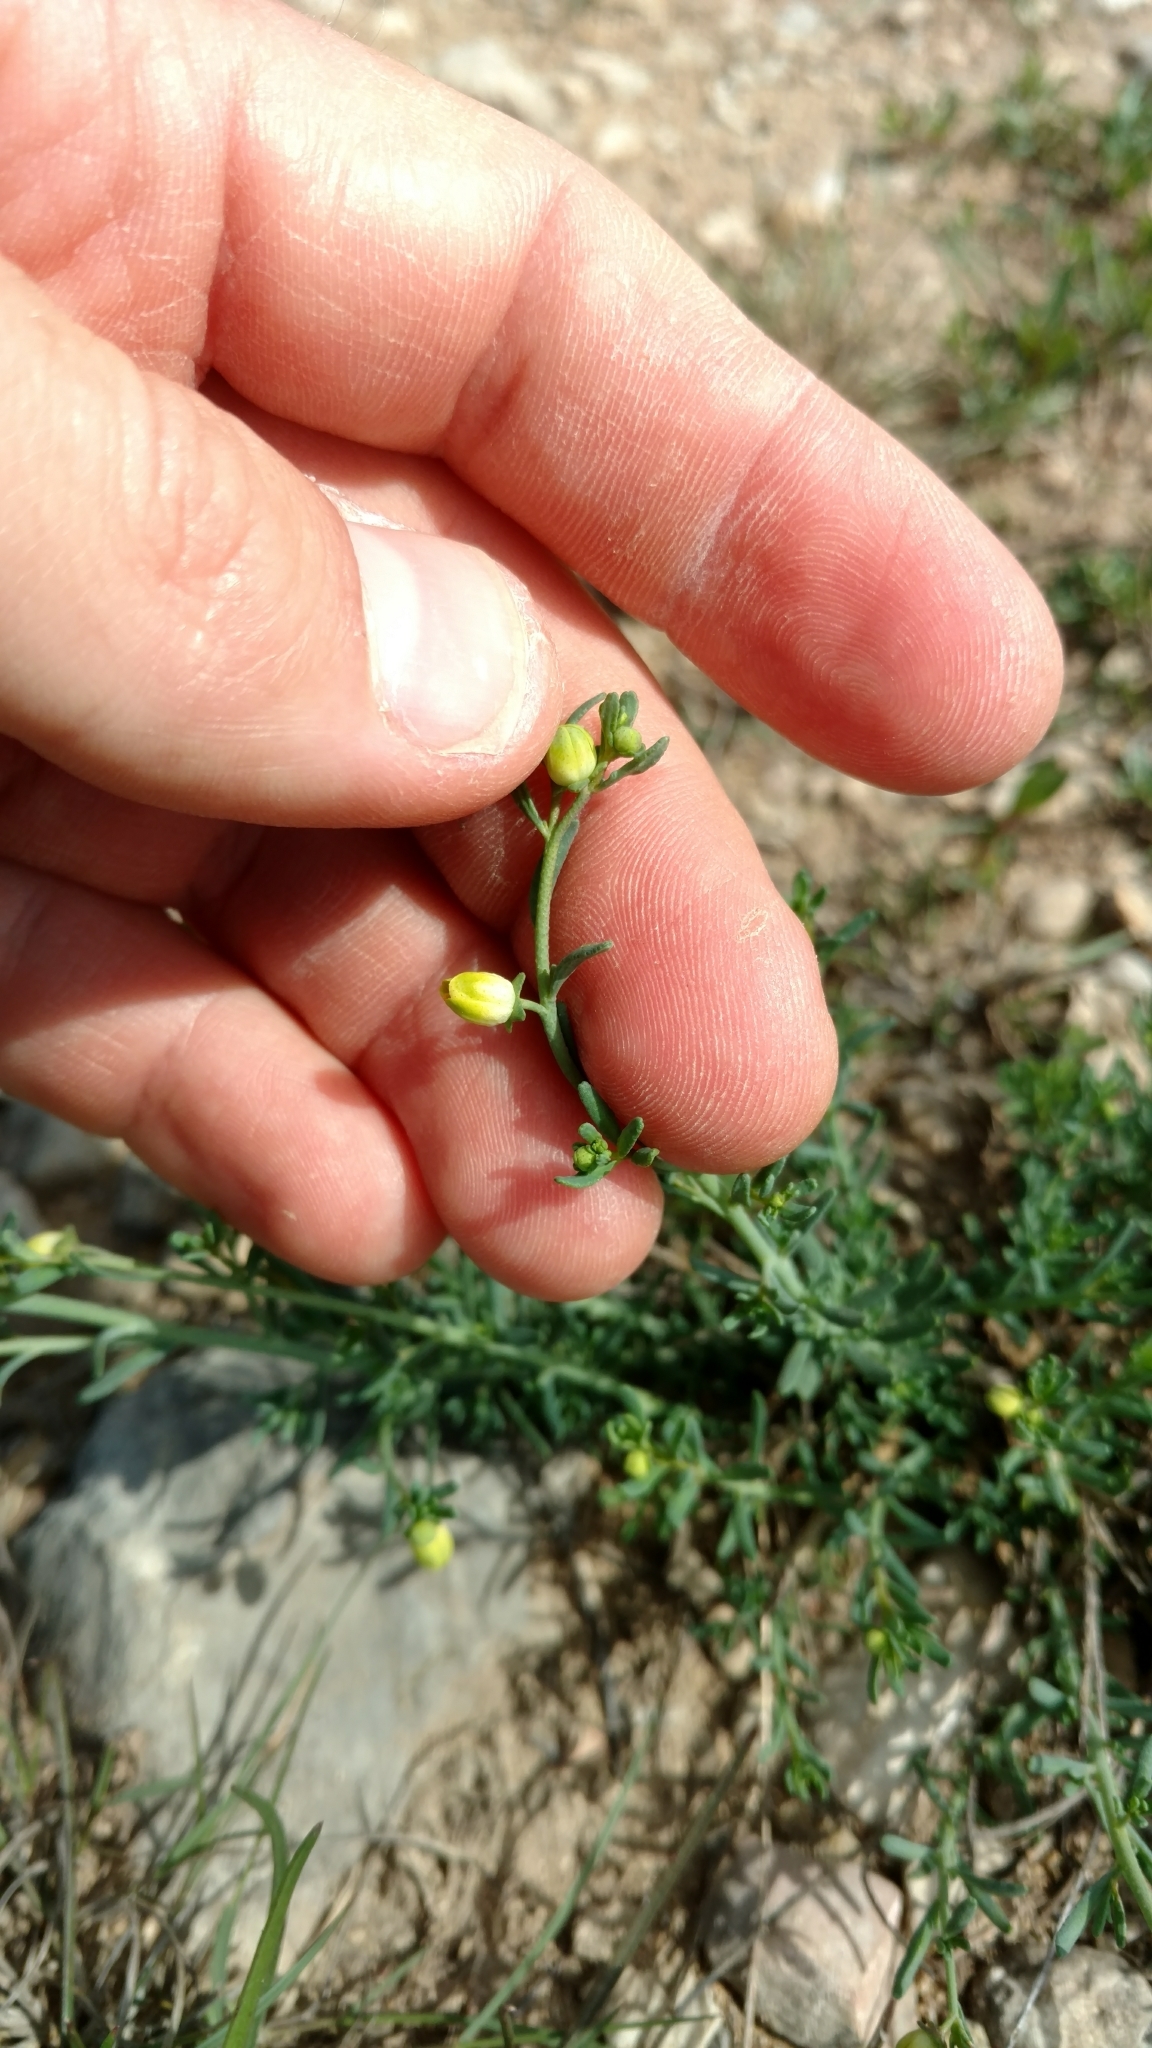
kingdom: Plantae
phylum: Tracheophyta
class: Magnoliopsida
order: Sapindales
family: Rutaceae
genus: Thamnosma
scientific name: Thamnosma texana
